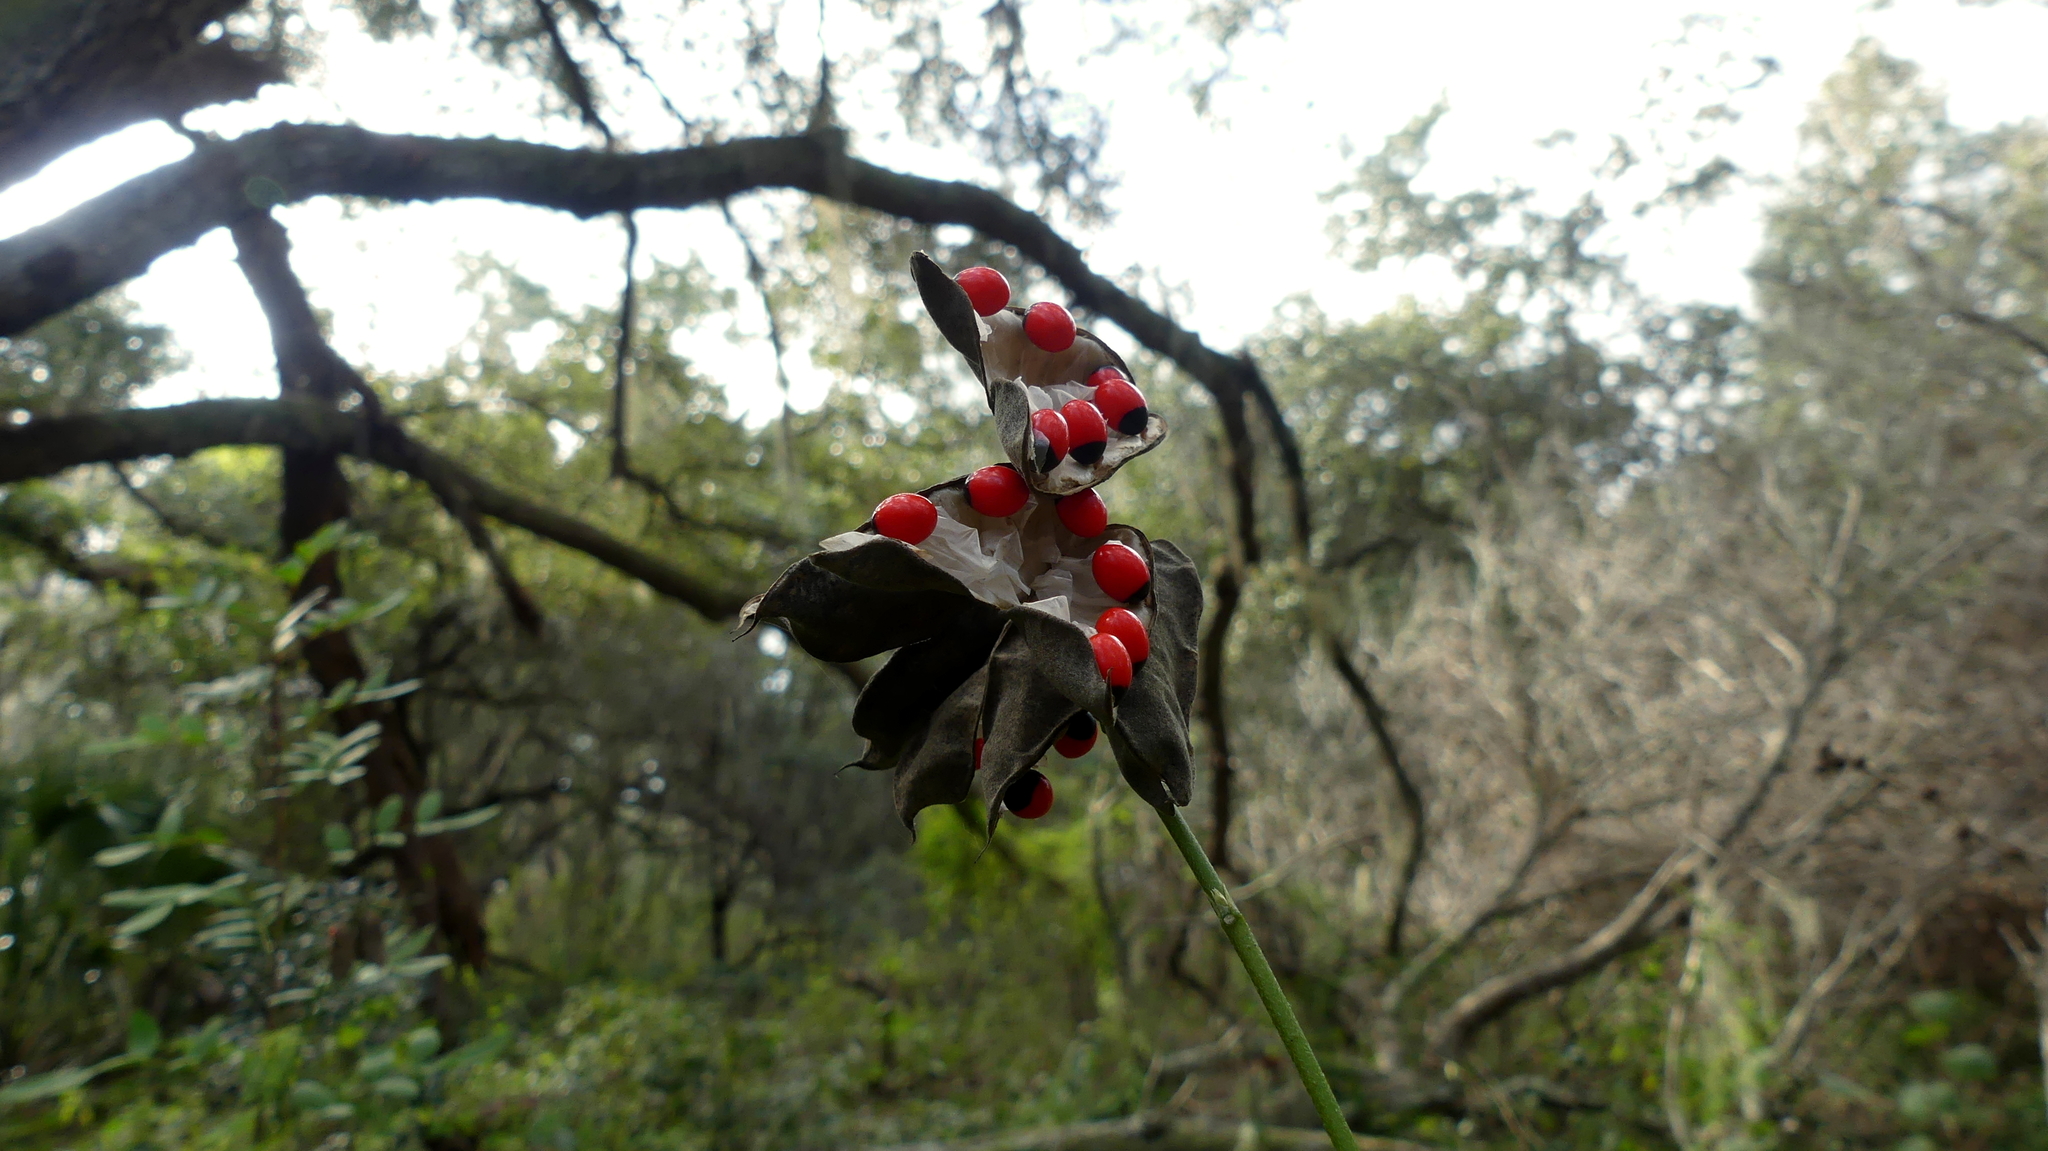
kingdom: Plantae
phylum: Tracheophyta
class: Magnoliopsida
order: Fabales
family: Fabaceae
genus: Abrus
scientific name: Abrus precatorius
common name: Rosarypea
